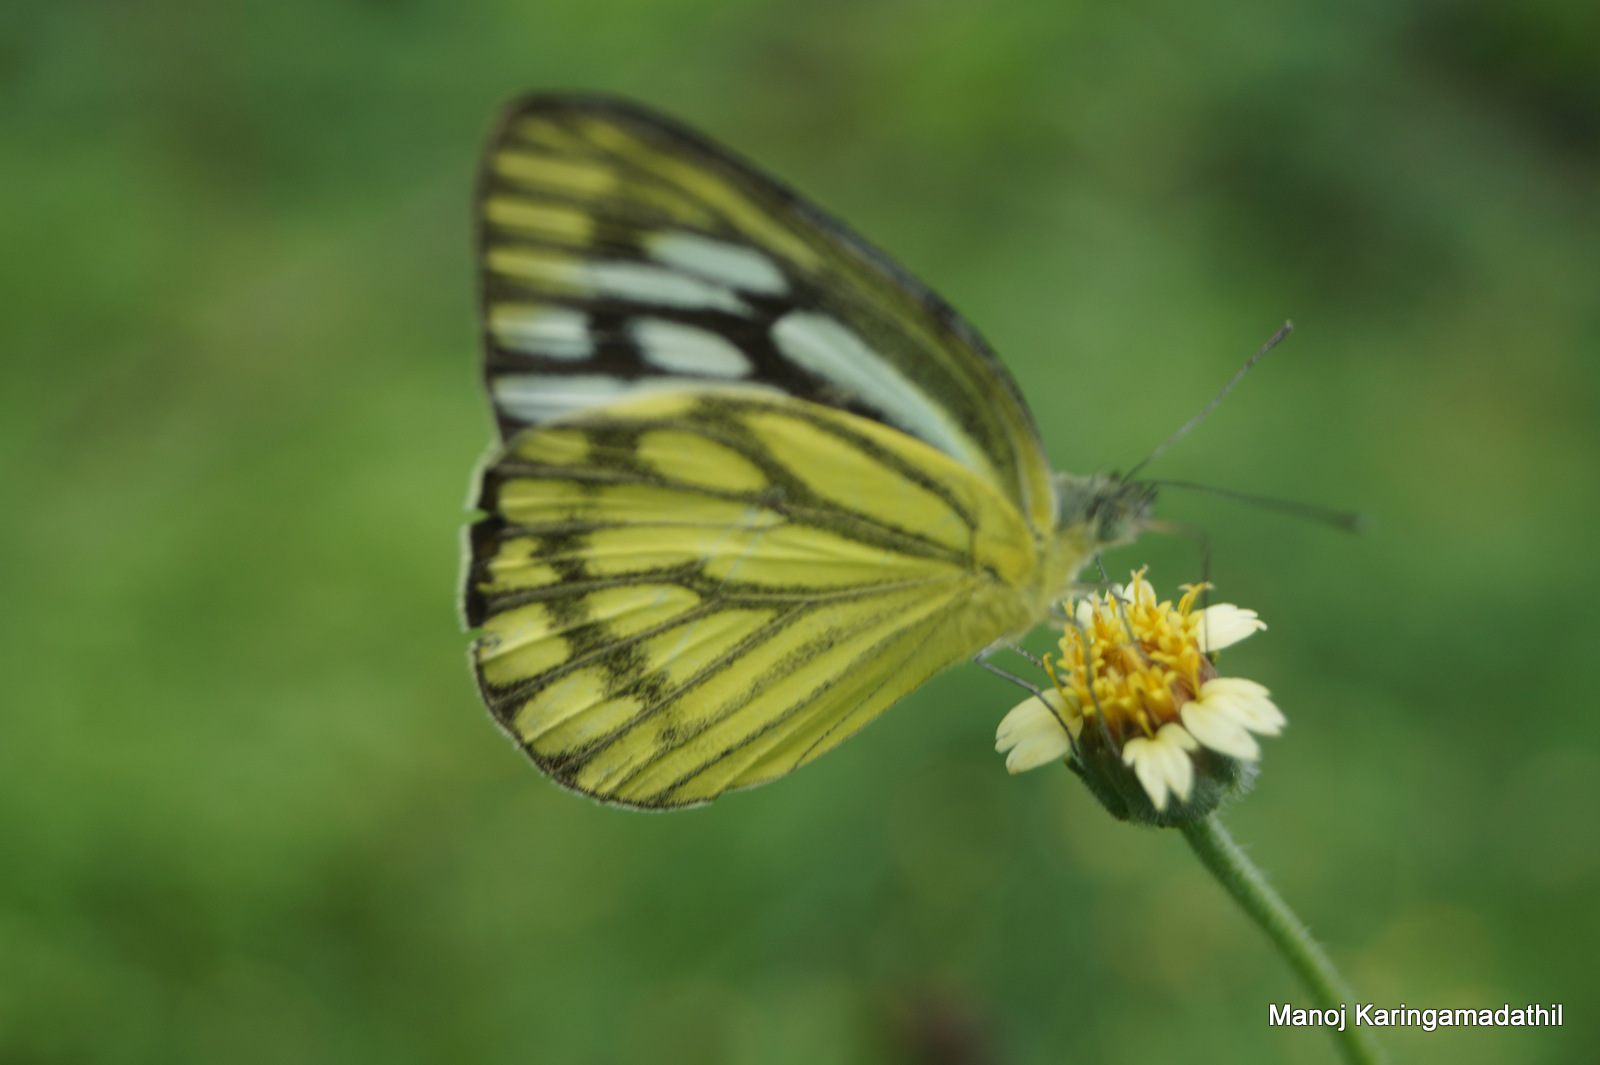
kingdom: Animalia
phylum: Arthropoda
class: Insecta
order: Lepidoptera
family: Pieridae
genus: Cepora
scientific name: Cepora nerissa
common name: Common gull
